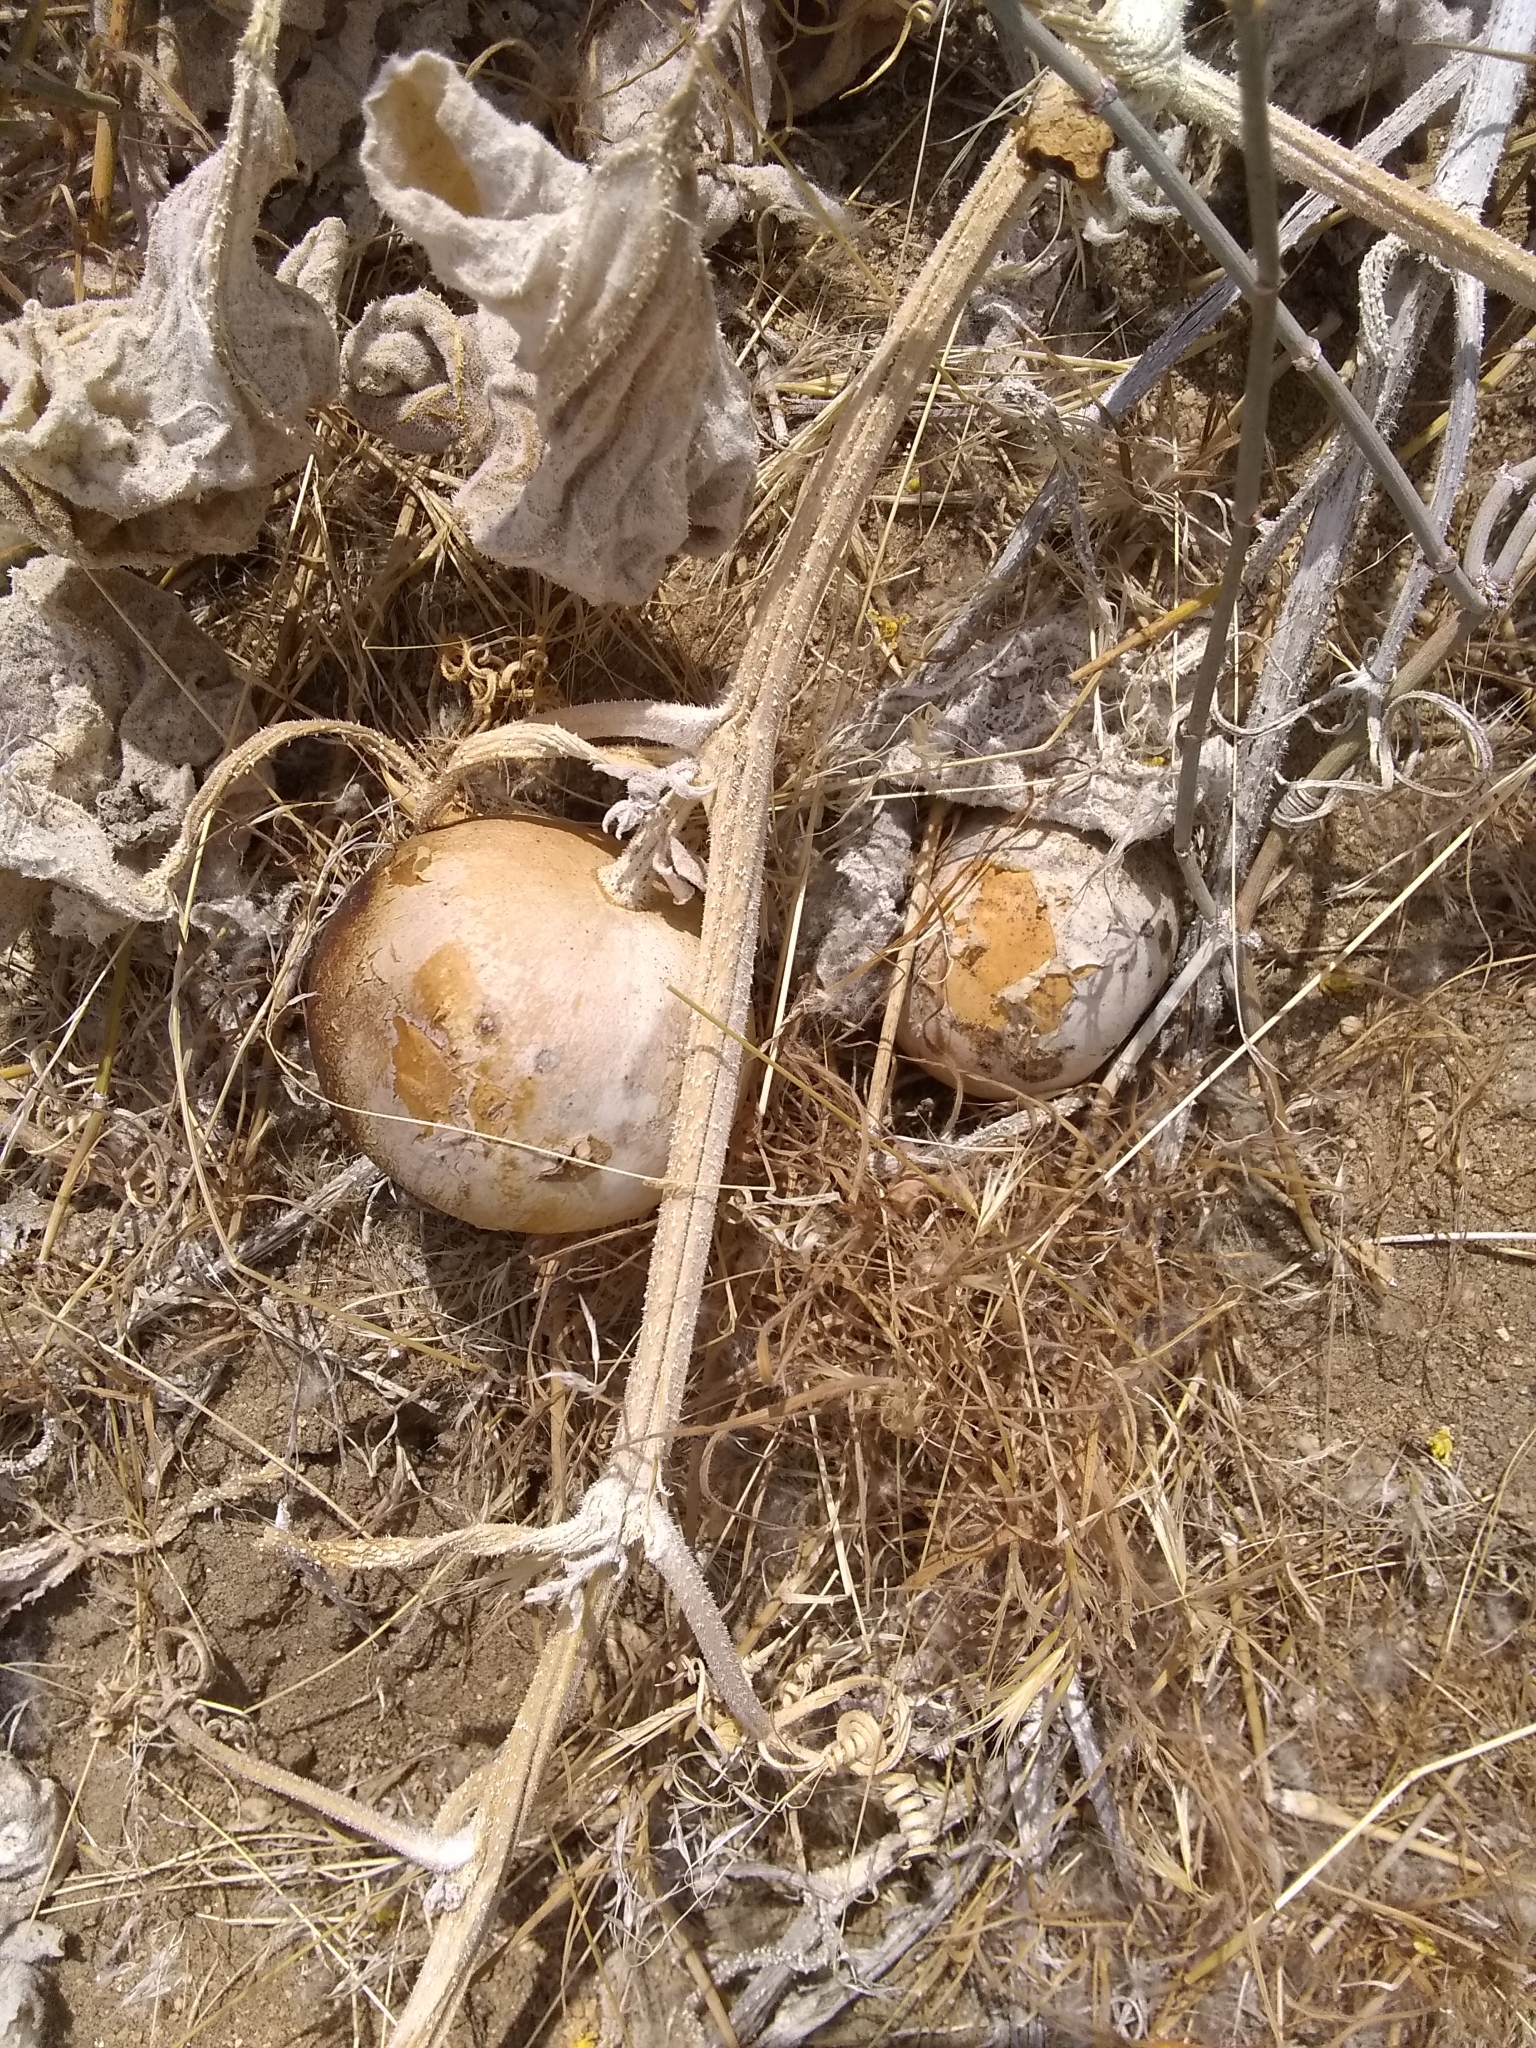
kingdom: Plantae
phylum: Tracheophyta
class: Magnoliopsida
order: Cucurbitales
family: Cucurbitaceae
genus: Cucurbita
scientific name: Cucurbita foetidissima
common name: Buffalo gourd
